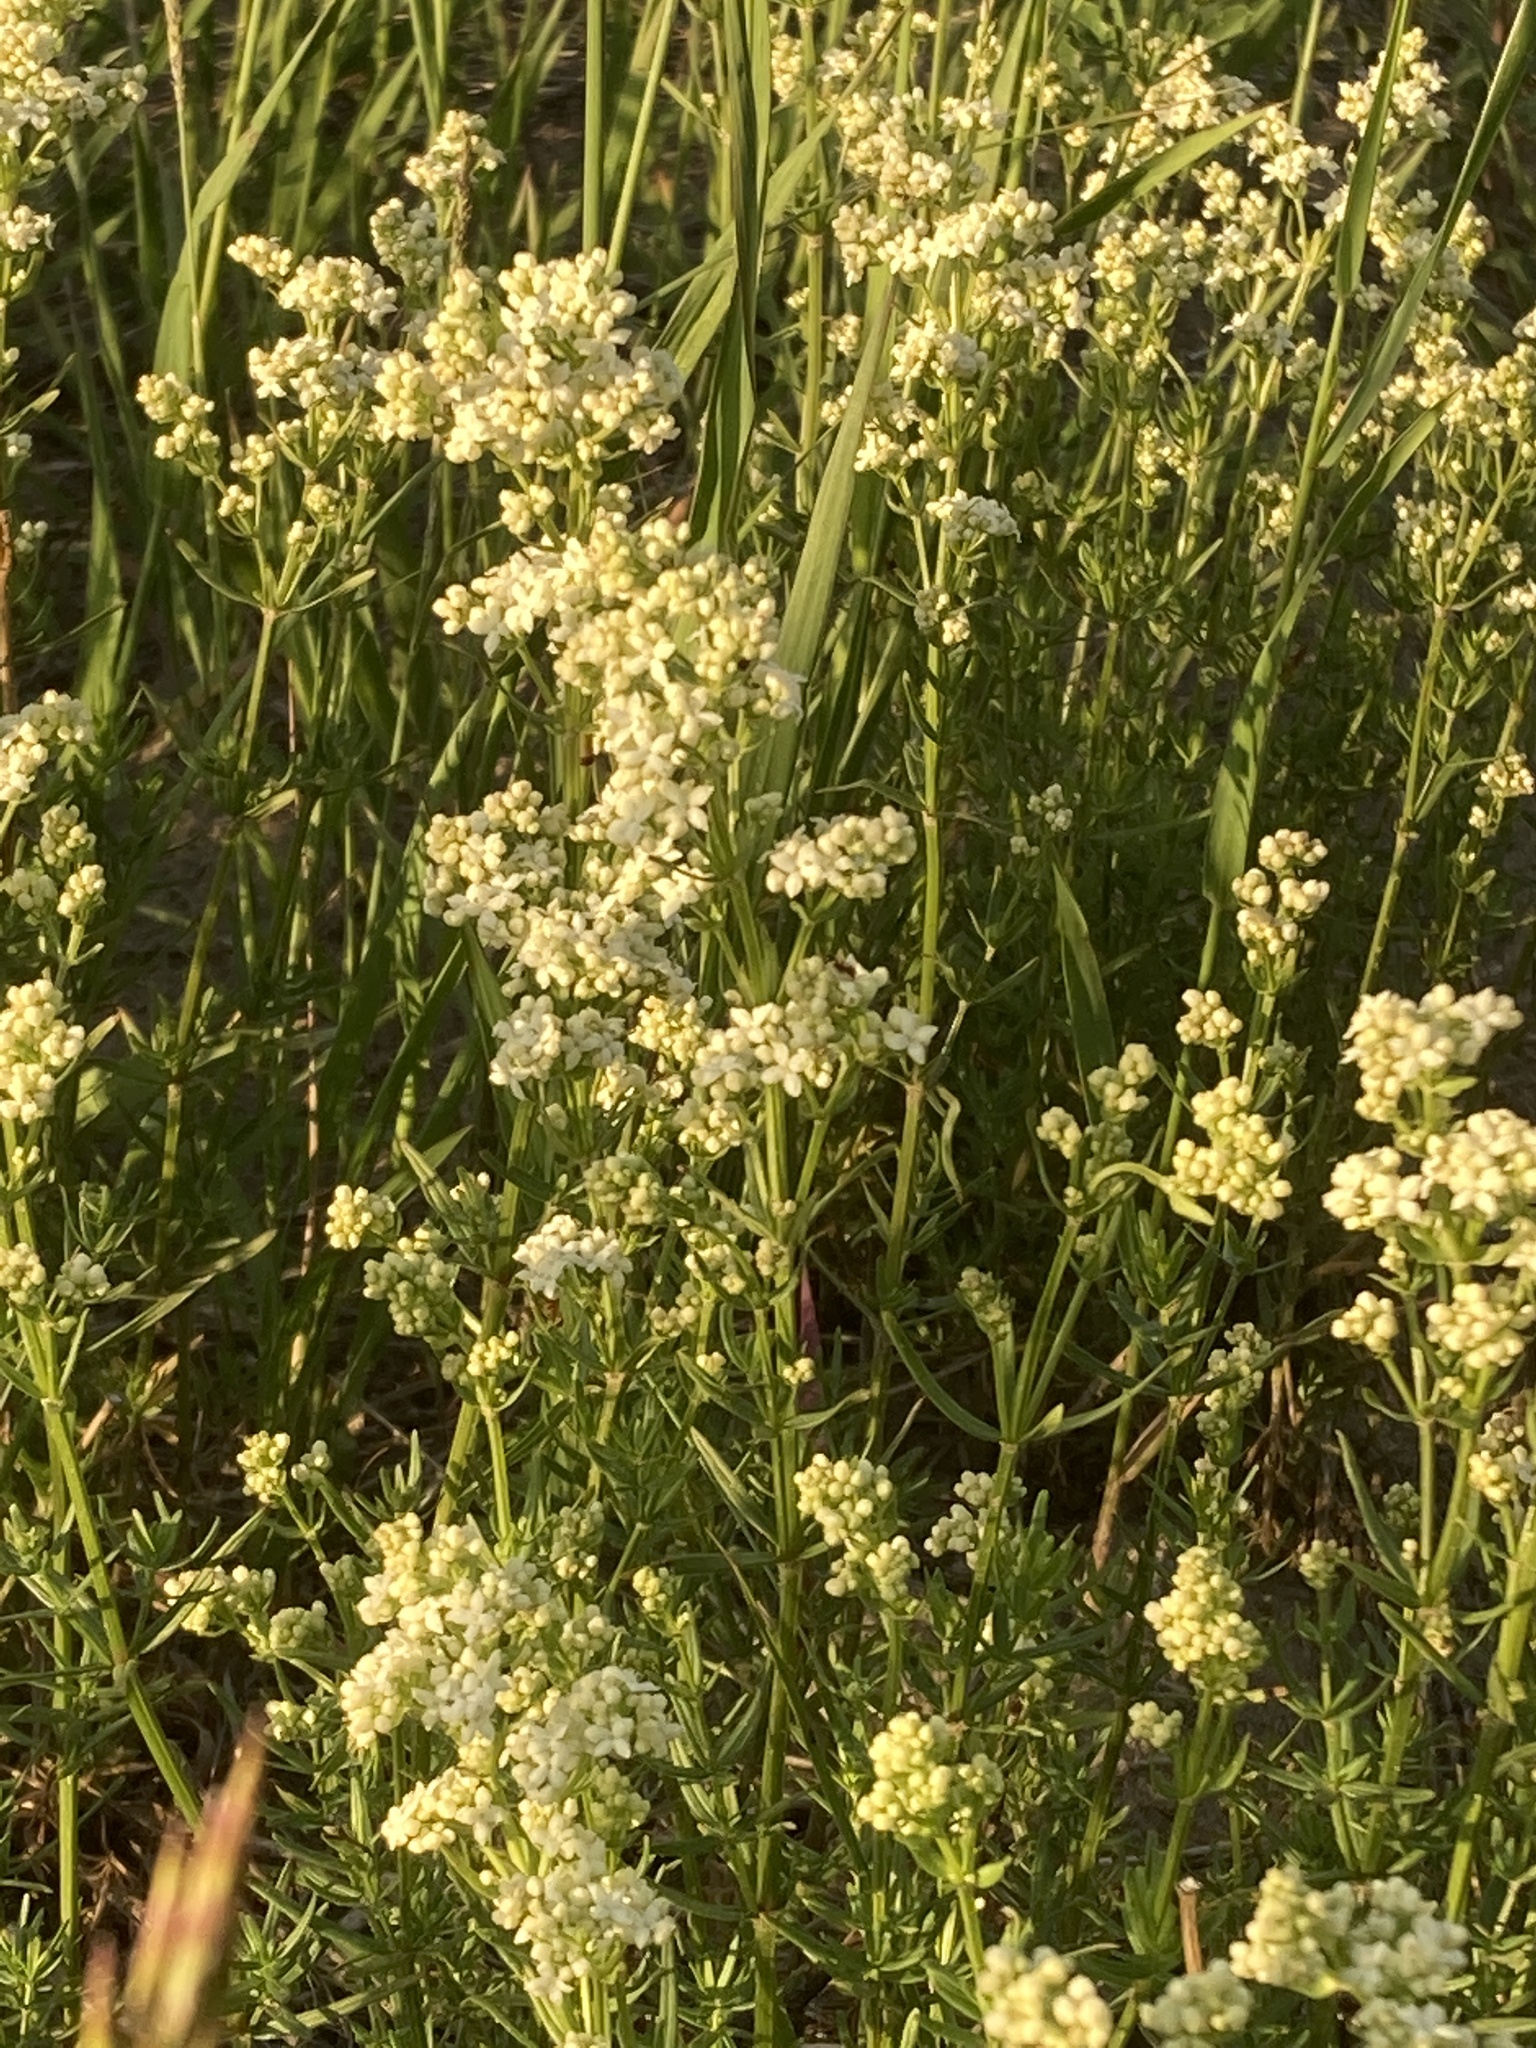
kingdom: Plantae
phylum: Tracheophyta
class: Magnoliopsida
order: Gentianales
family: Rubiaceae
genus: Galium
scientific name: Galium boreale
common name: Northern bedstraw
